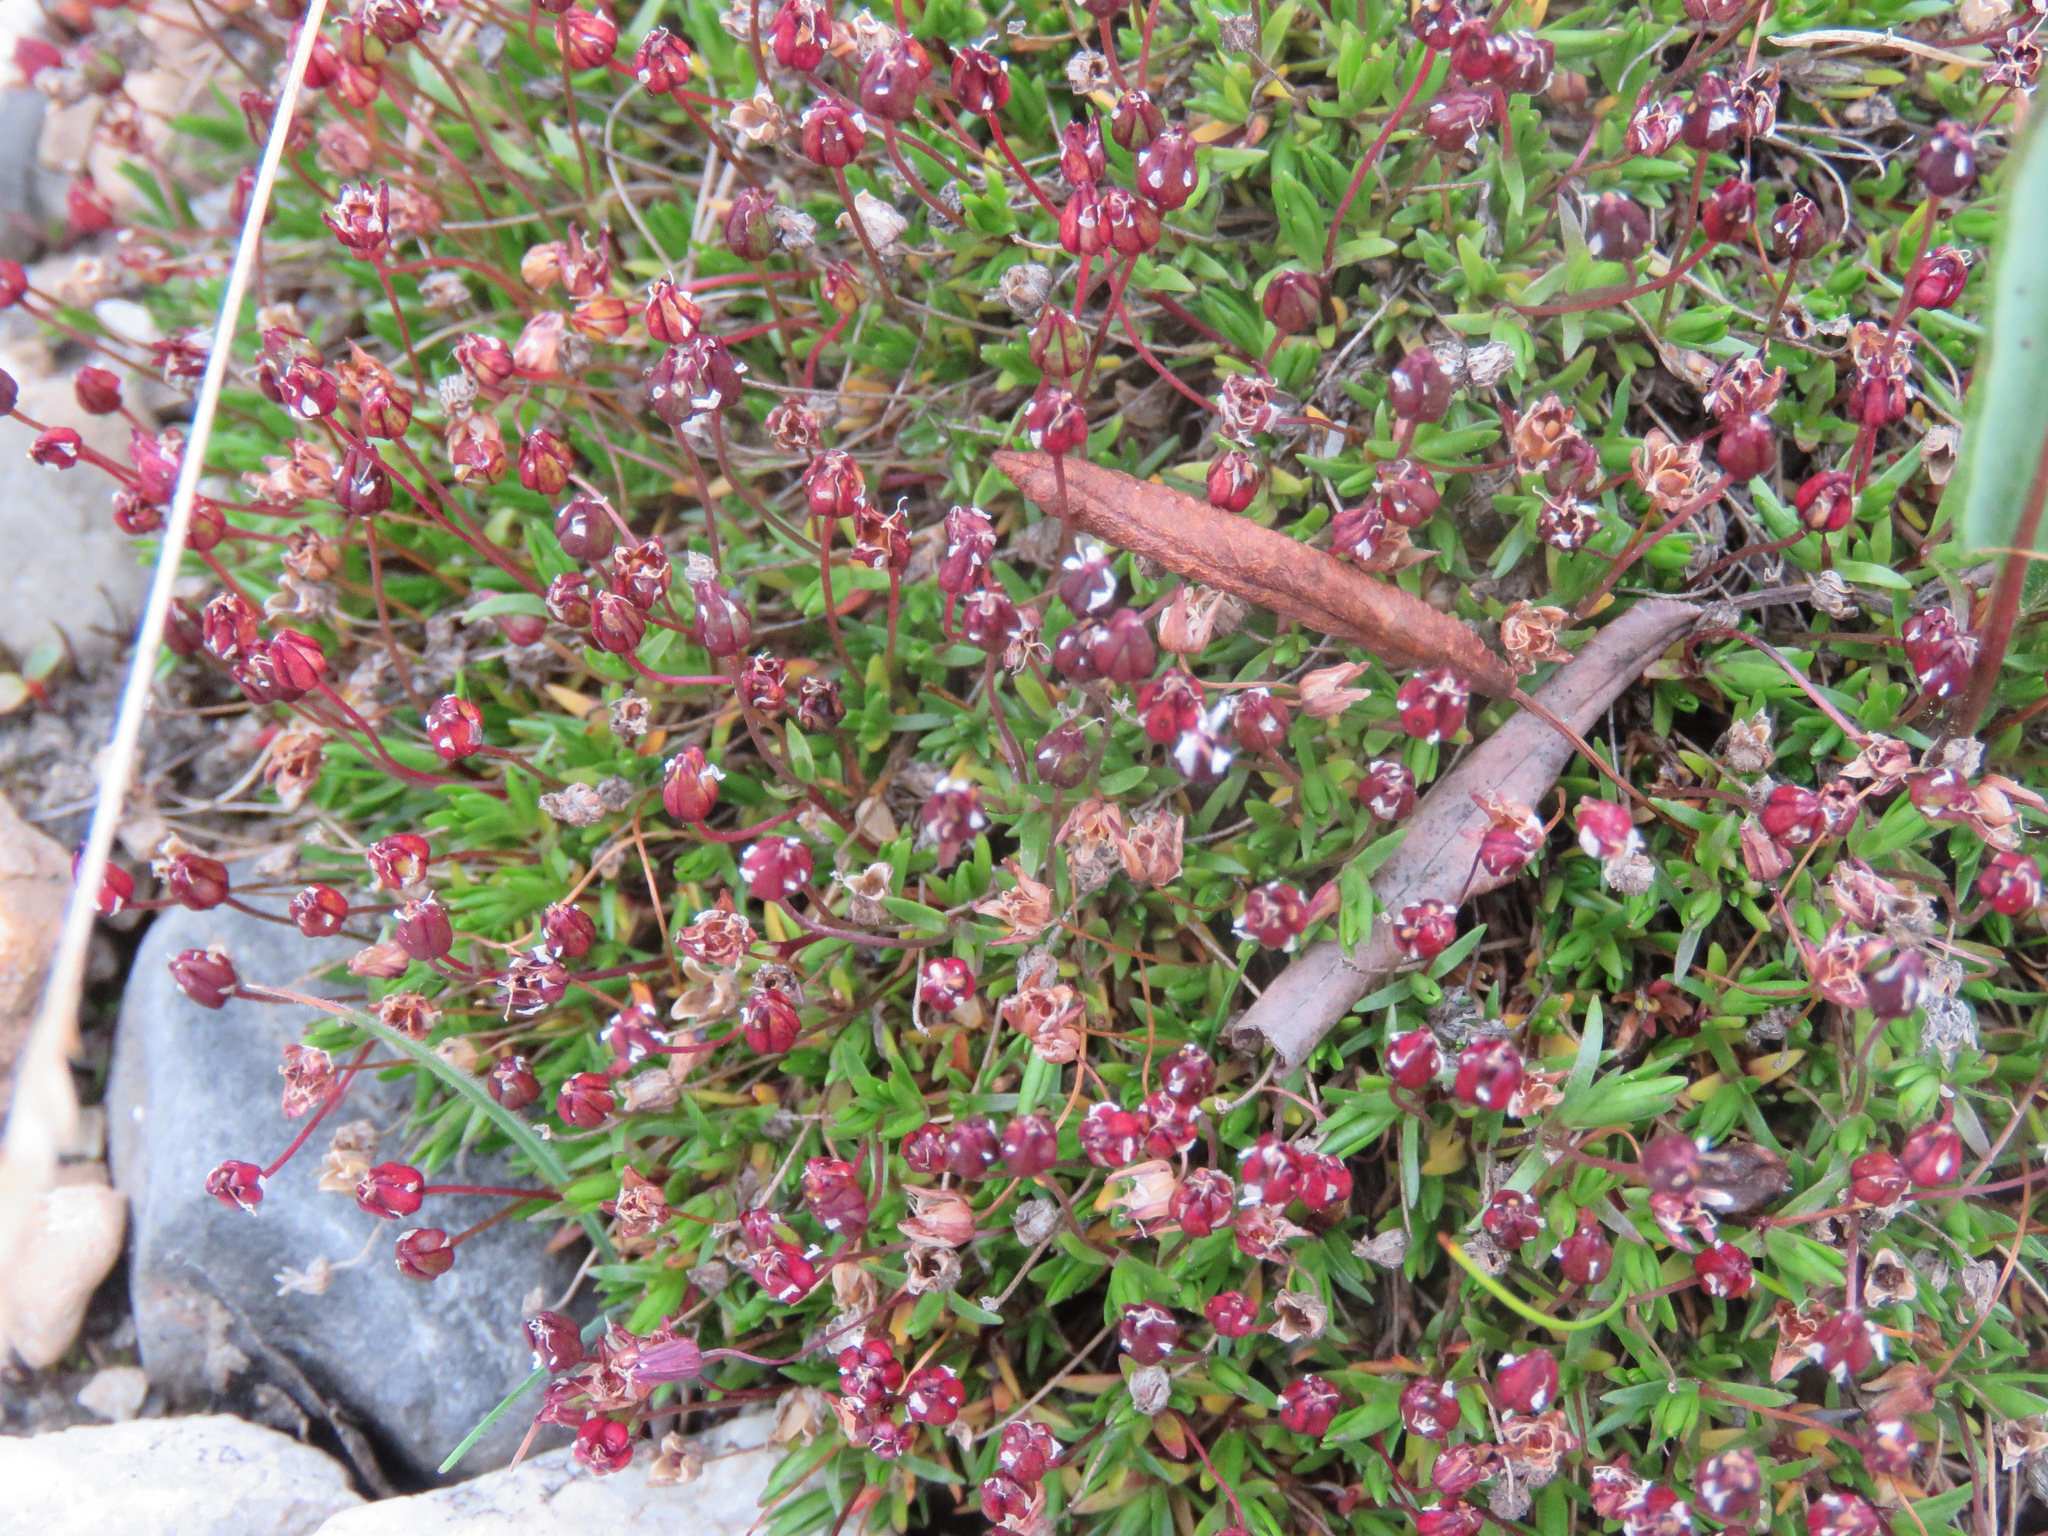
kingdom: Plantae
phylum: Tracheophyta
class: Magnoliopsida
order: Caryophyllales
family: Caryophyllaceae
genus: Silene
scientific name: Silene acaulis
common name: Moss campion
